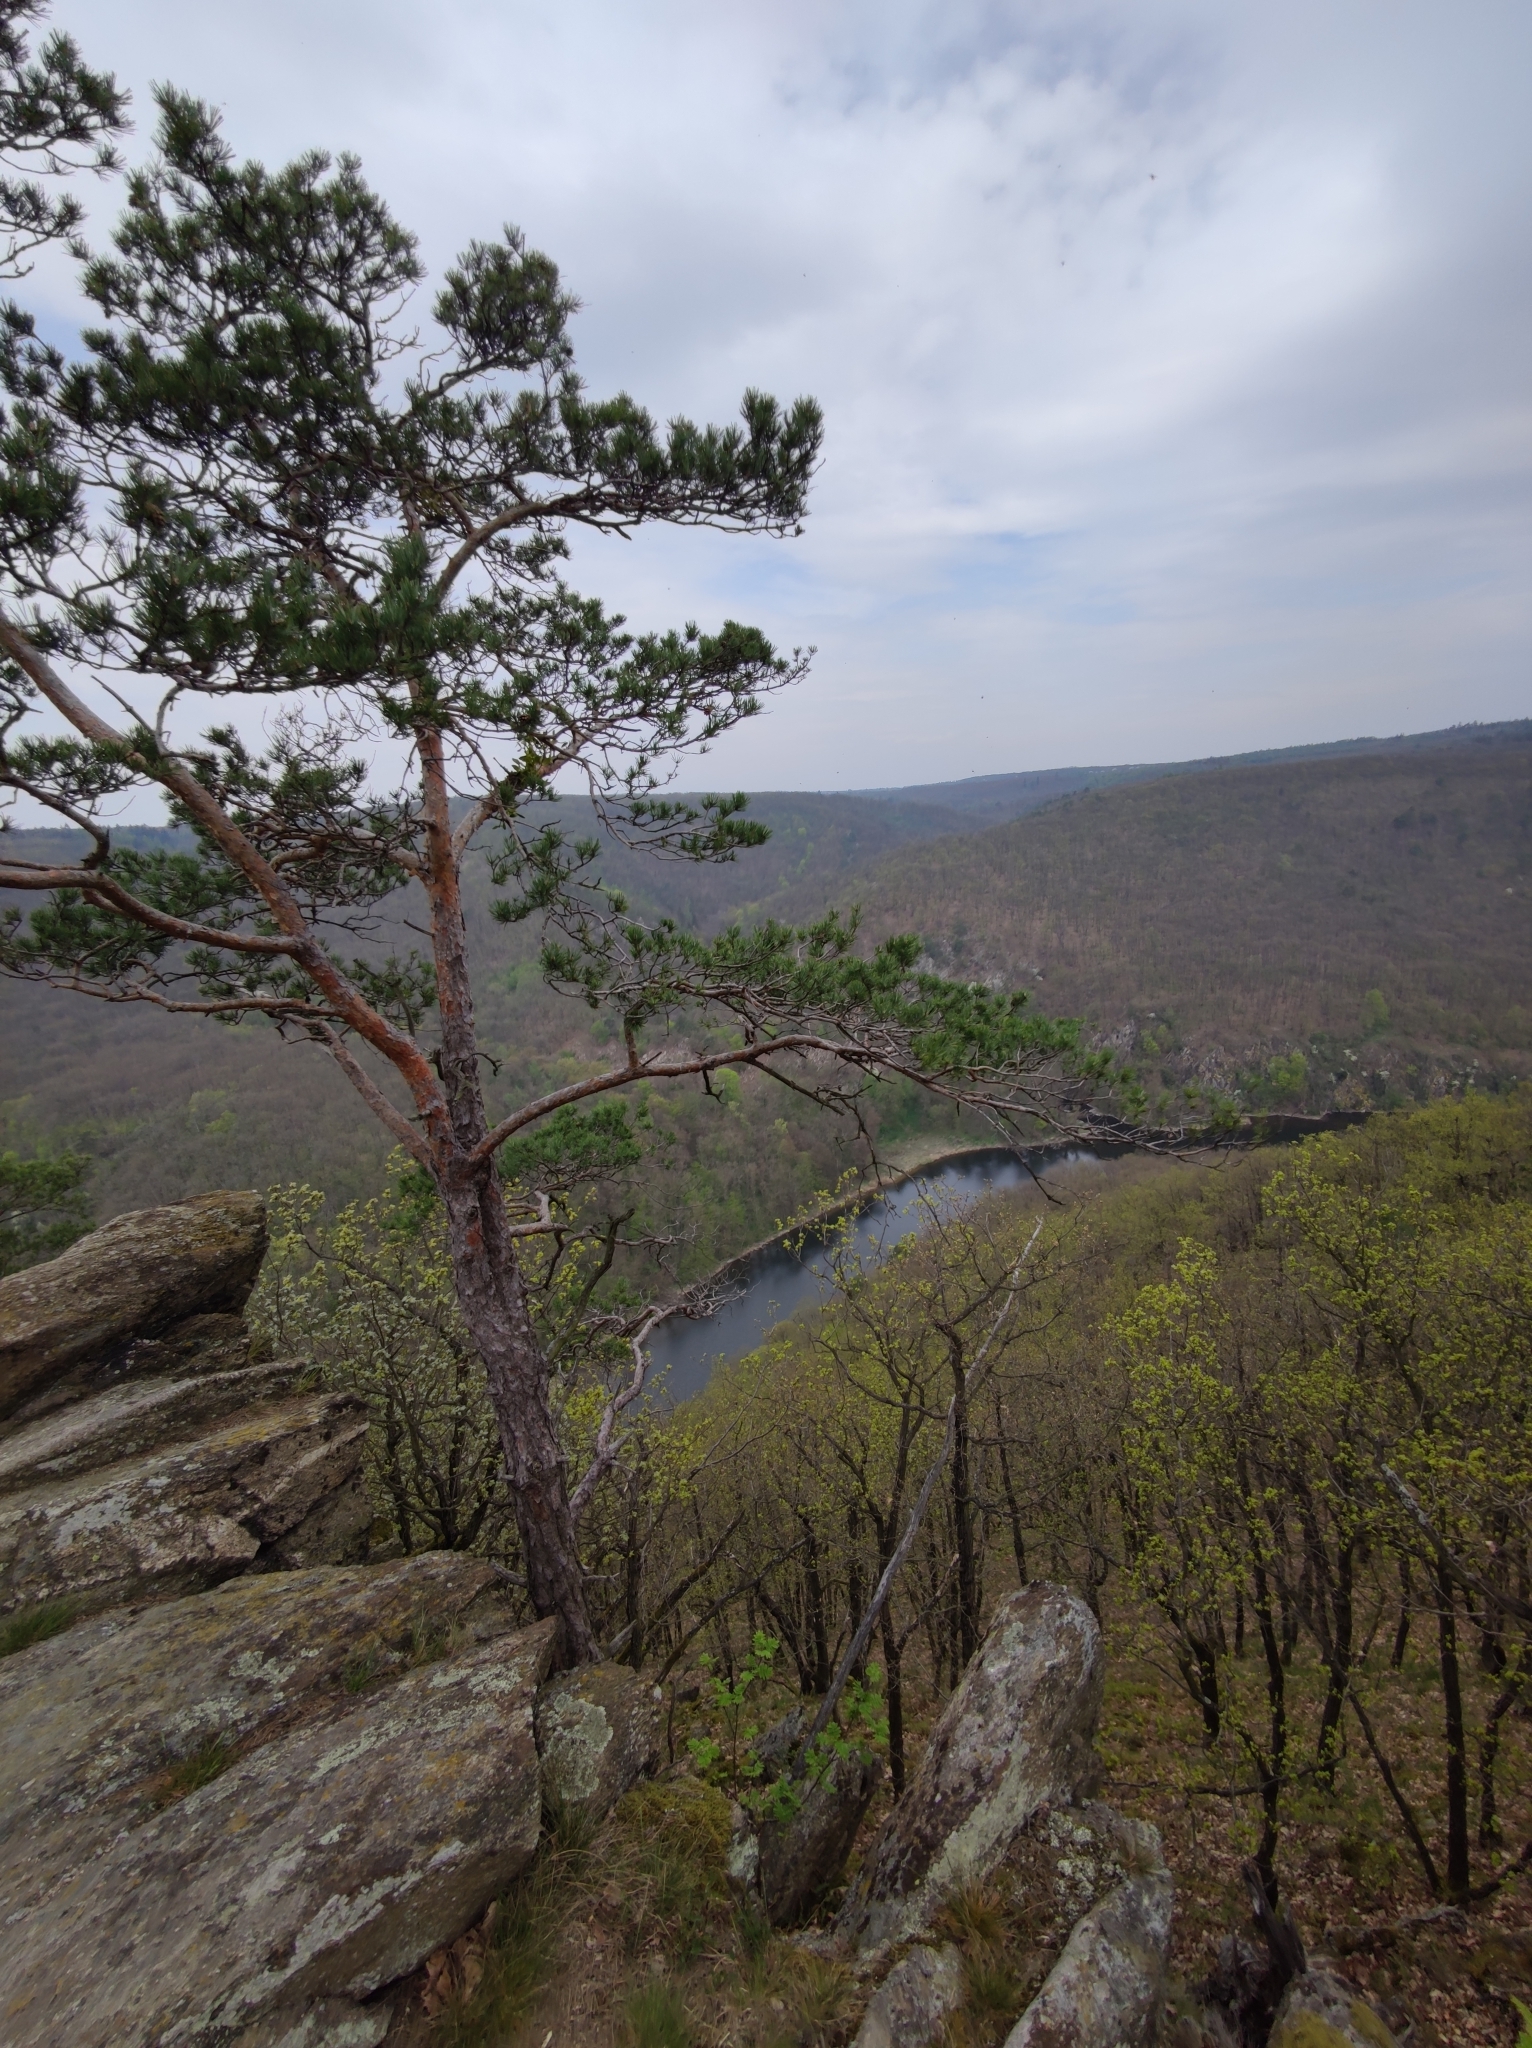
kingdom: Plantae
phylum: Tracheophyta
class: Pinopsida
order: Pinales
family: Pinaceae
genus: Pinus
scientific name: Pinus sylvestris
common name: Scots pine
